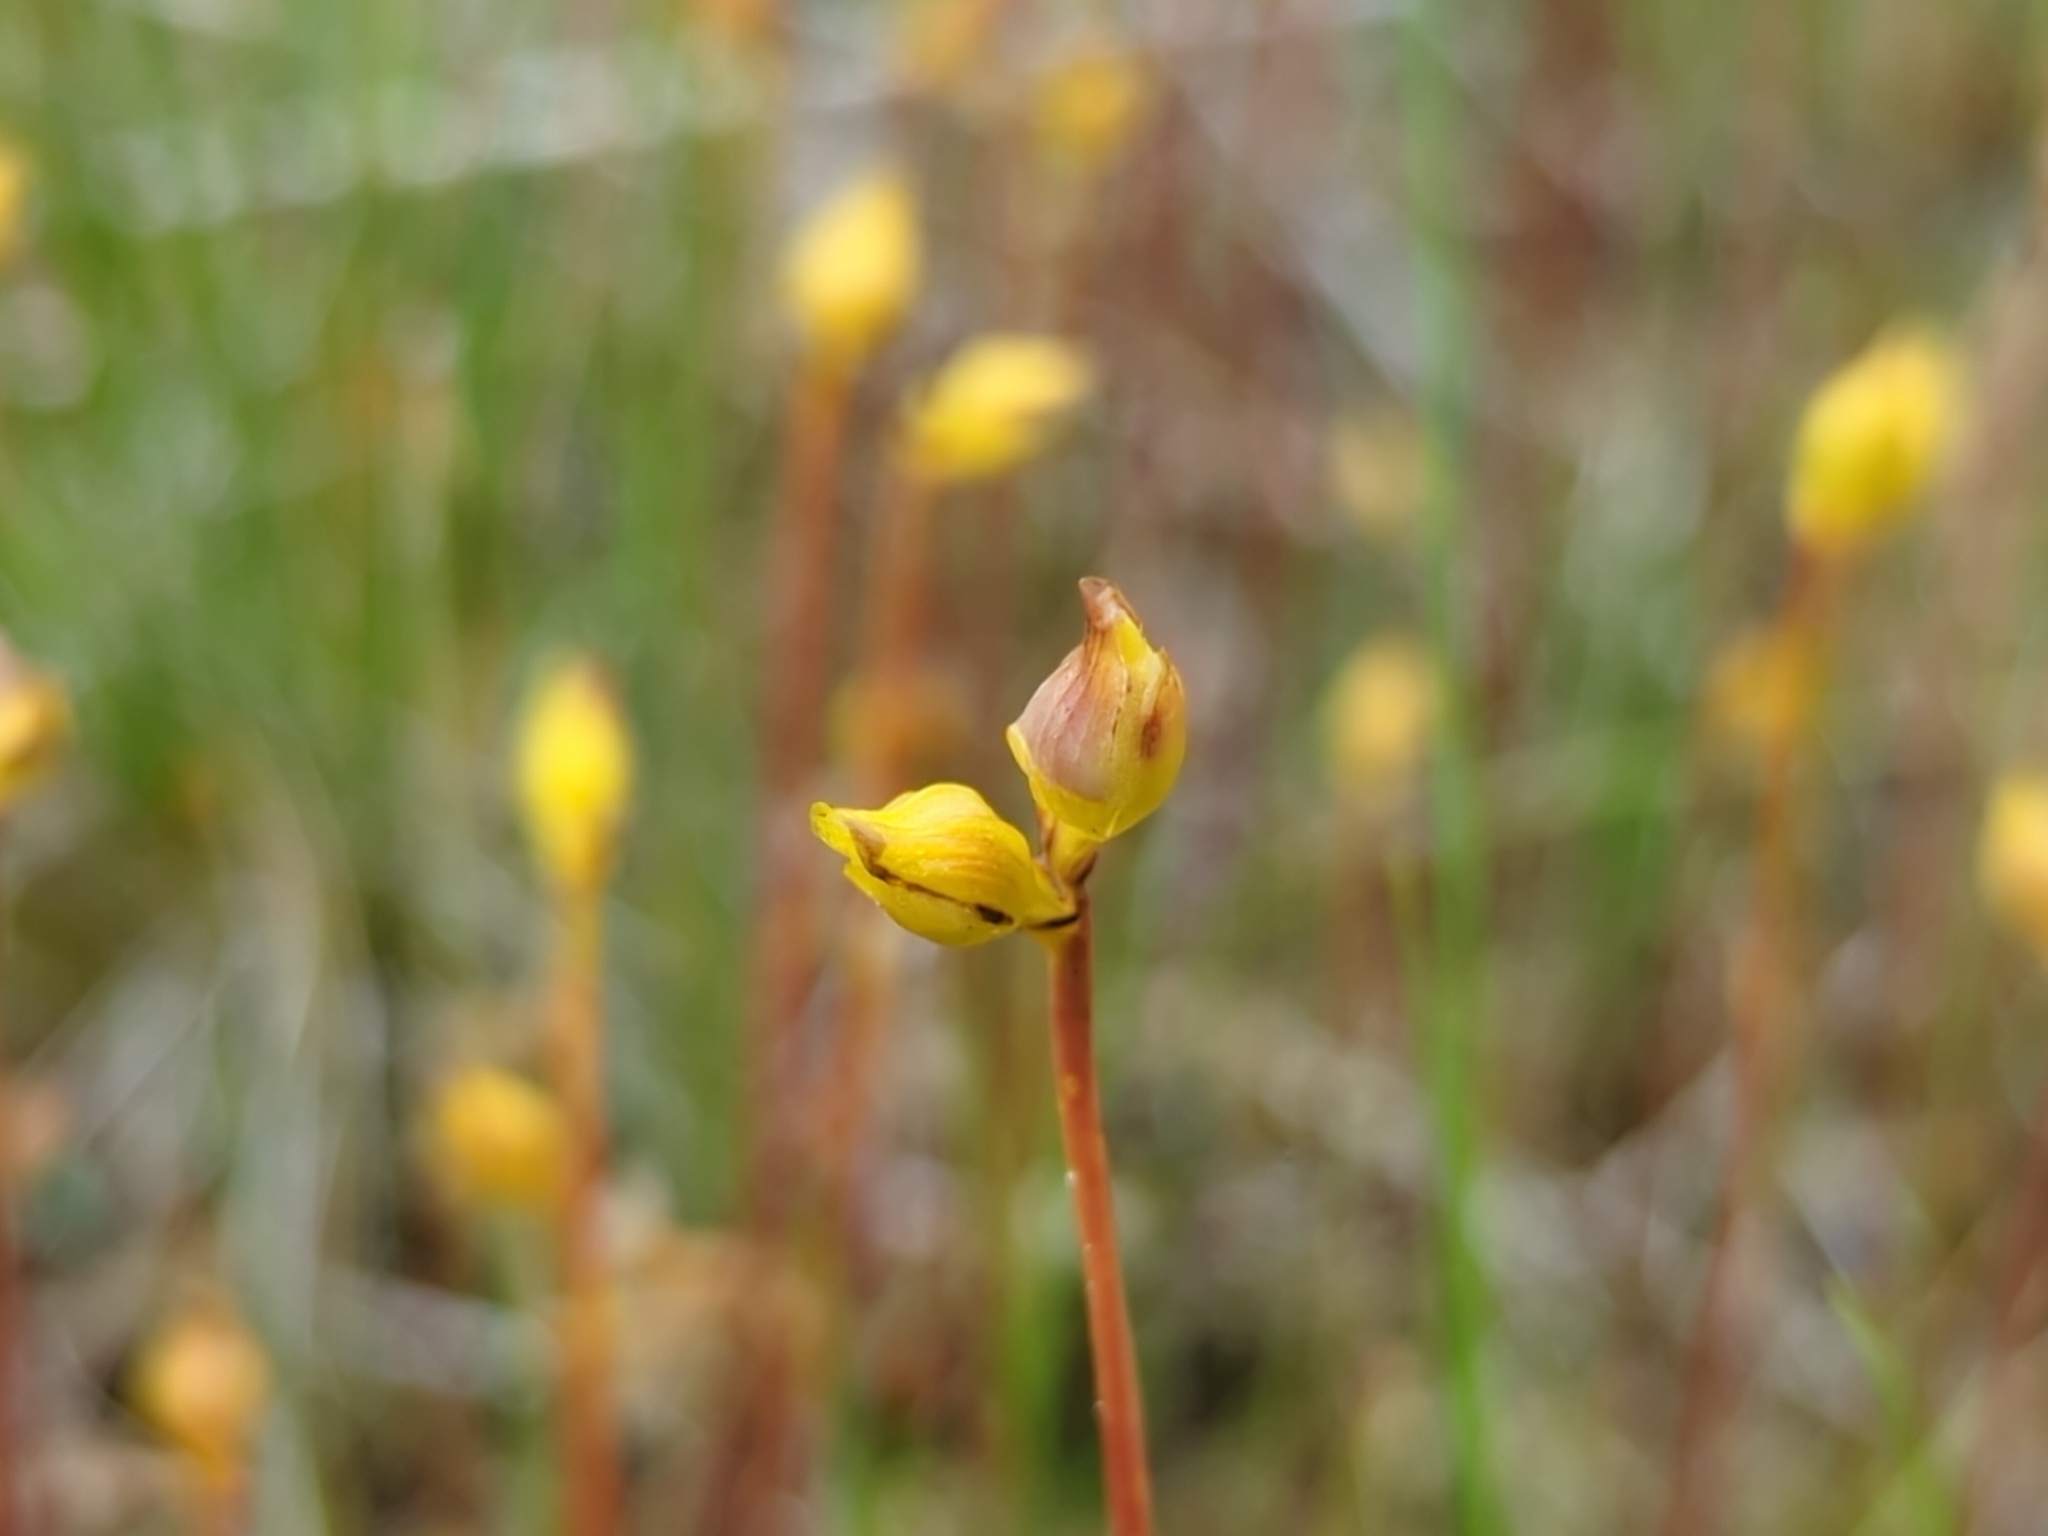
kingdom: Plantae
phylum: Tracheophyta
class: Magnoliopsida
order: Lamiales
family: Lentibulariaceae
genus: Utricularia
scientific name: Utricularia cornuta
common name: Horned bladderwort
